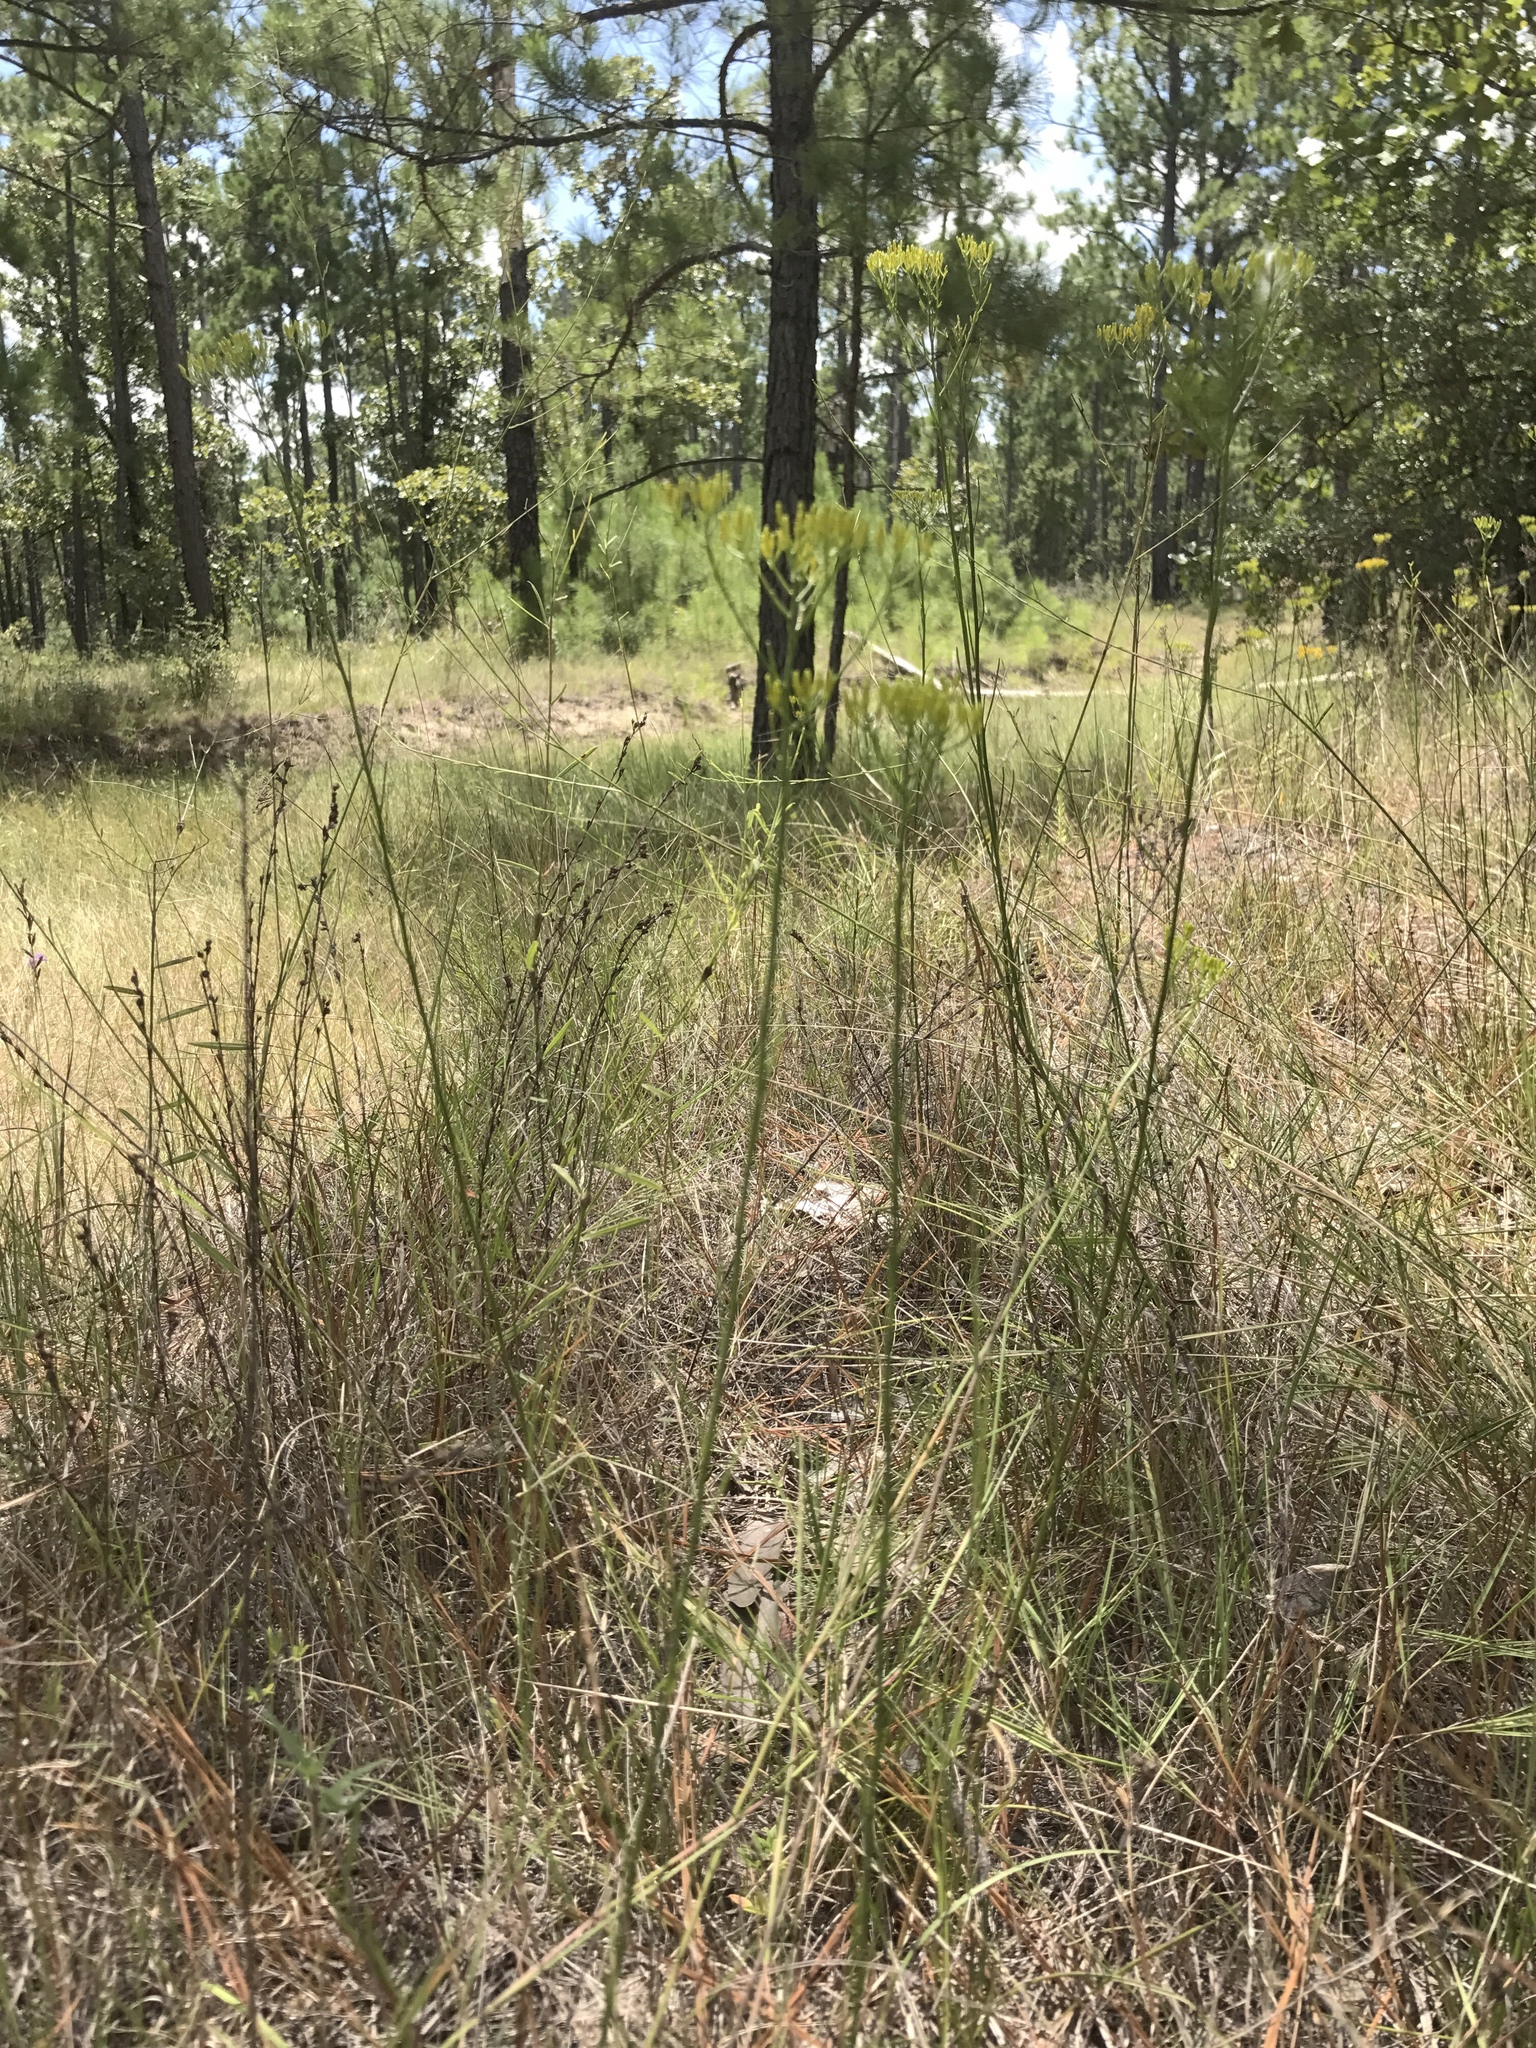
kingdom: Plantae
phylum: Tracheophyta
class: Magnoliopsida
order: Asterales
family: Asteraceae
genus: Bigelowia
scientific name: Bigelowia nuttallii
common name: Nuttall's rayless-goldenrod
